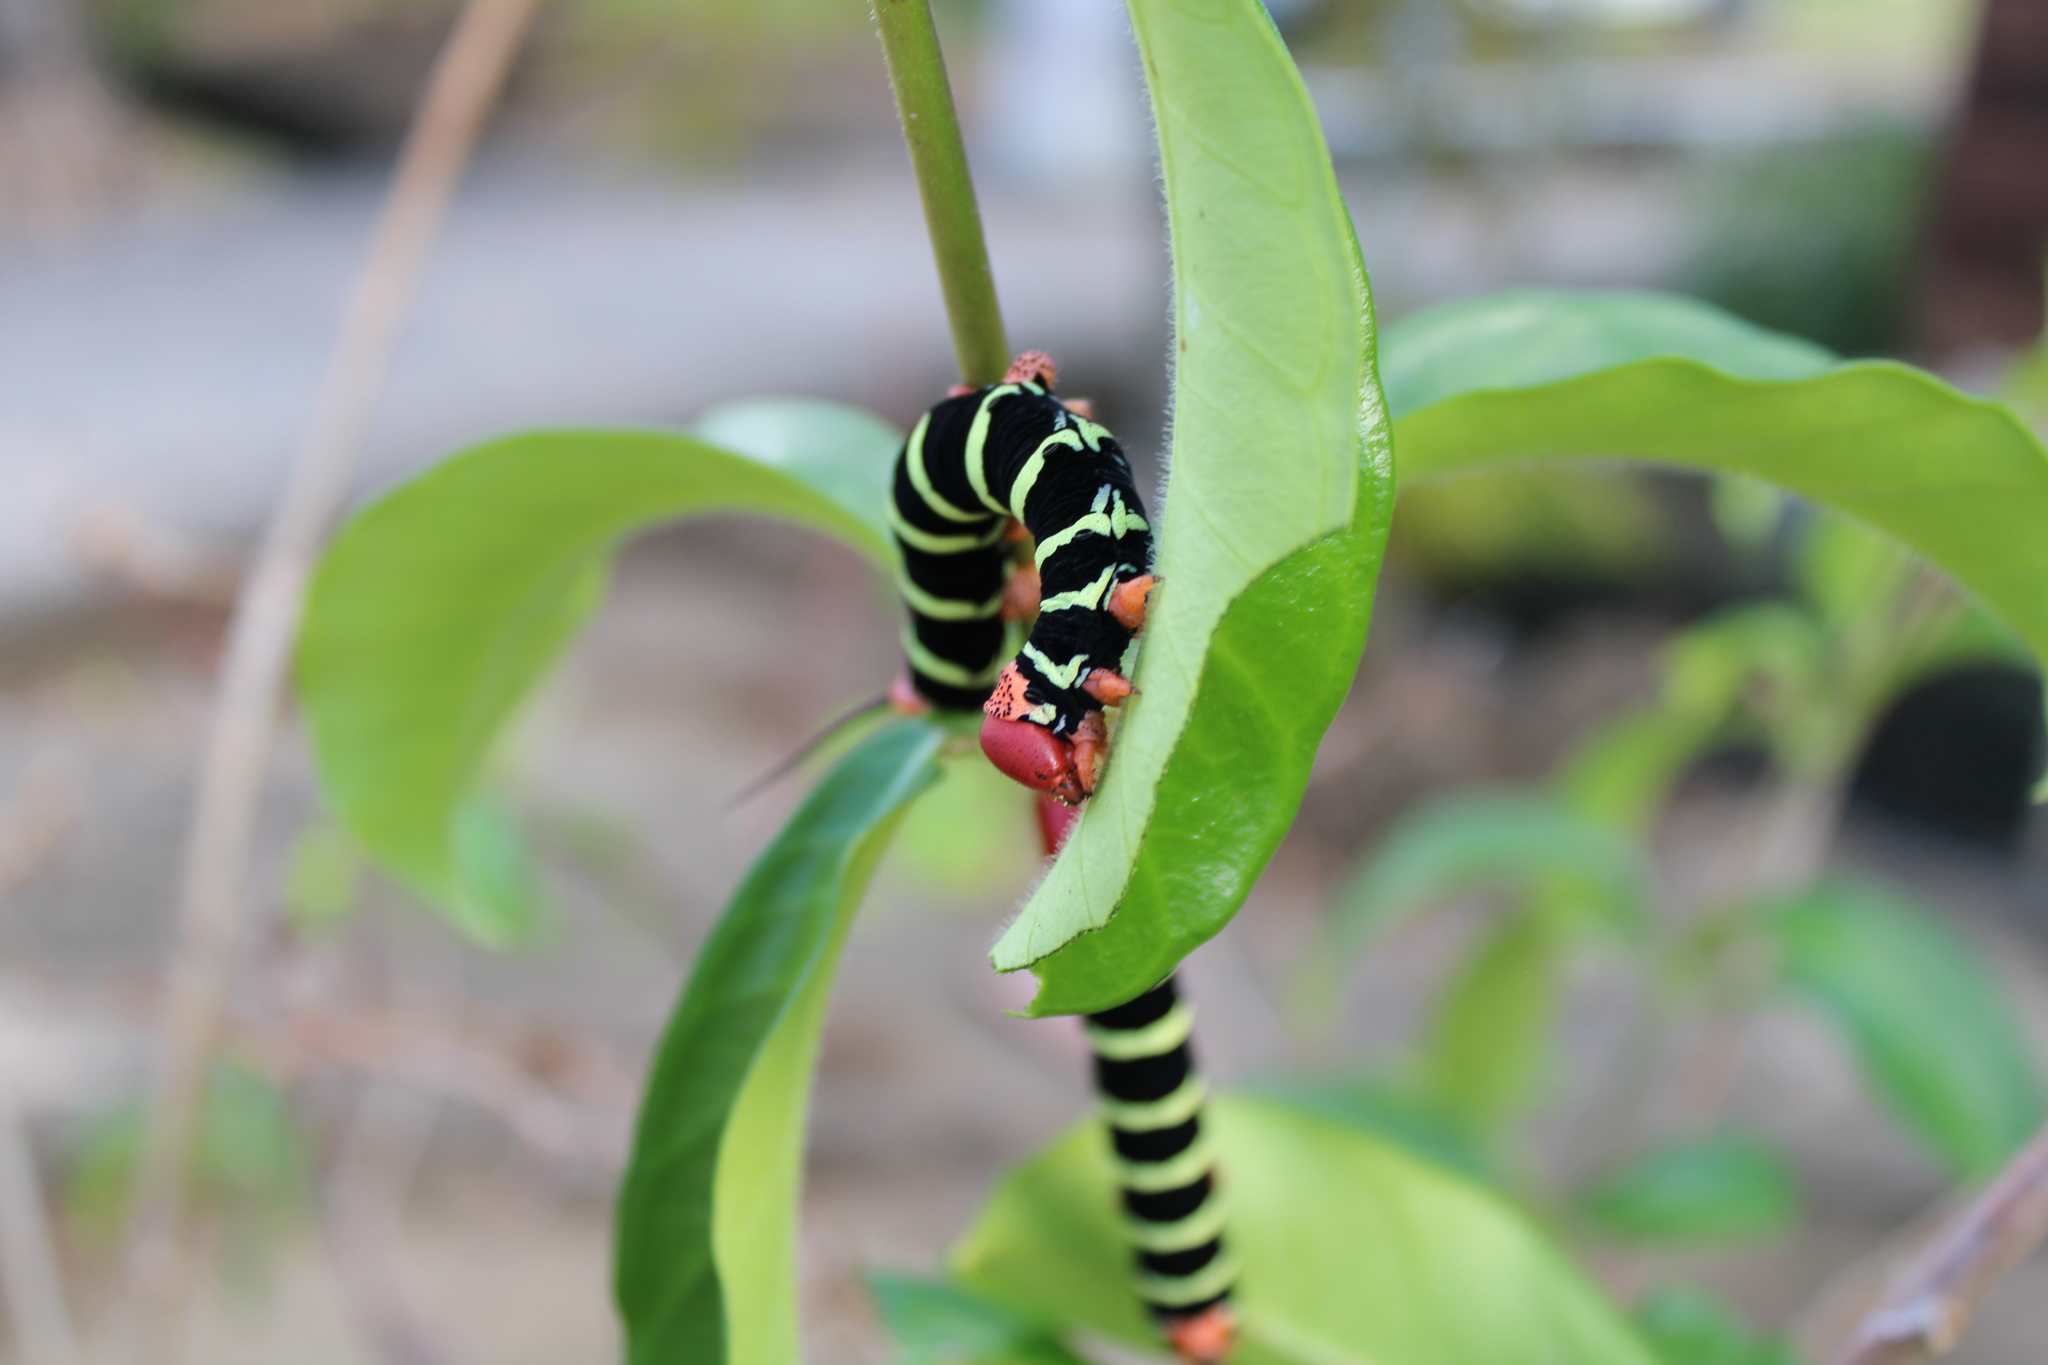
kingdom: Animalia
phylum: Arthropoda
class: Insecta
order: Lepidoptera
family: Sphingidae
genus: Pseudosphinx
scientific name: Pseudosphinx tetrio
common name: Tetrio sphinx
